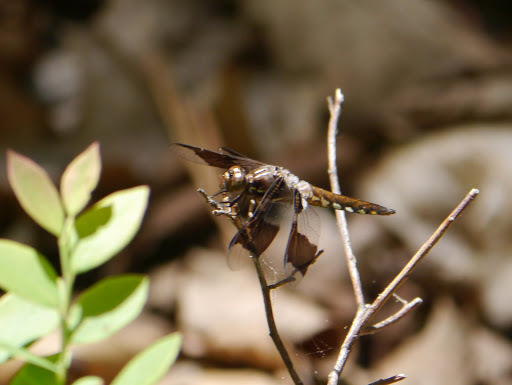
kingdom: Animalia
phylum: Arthropoda
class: Insecta
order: Odonata
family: Libellulidae
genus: Plathemis
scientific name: Plathemis lydia
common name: Common whitetail
